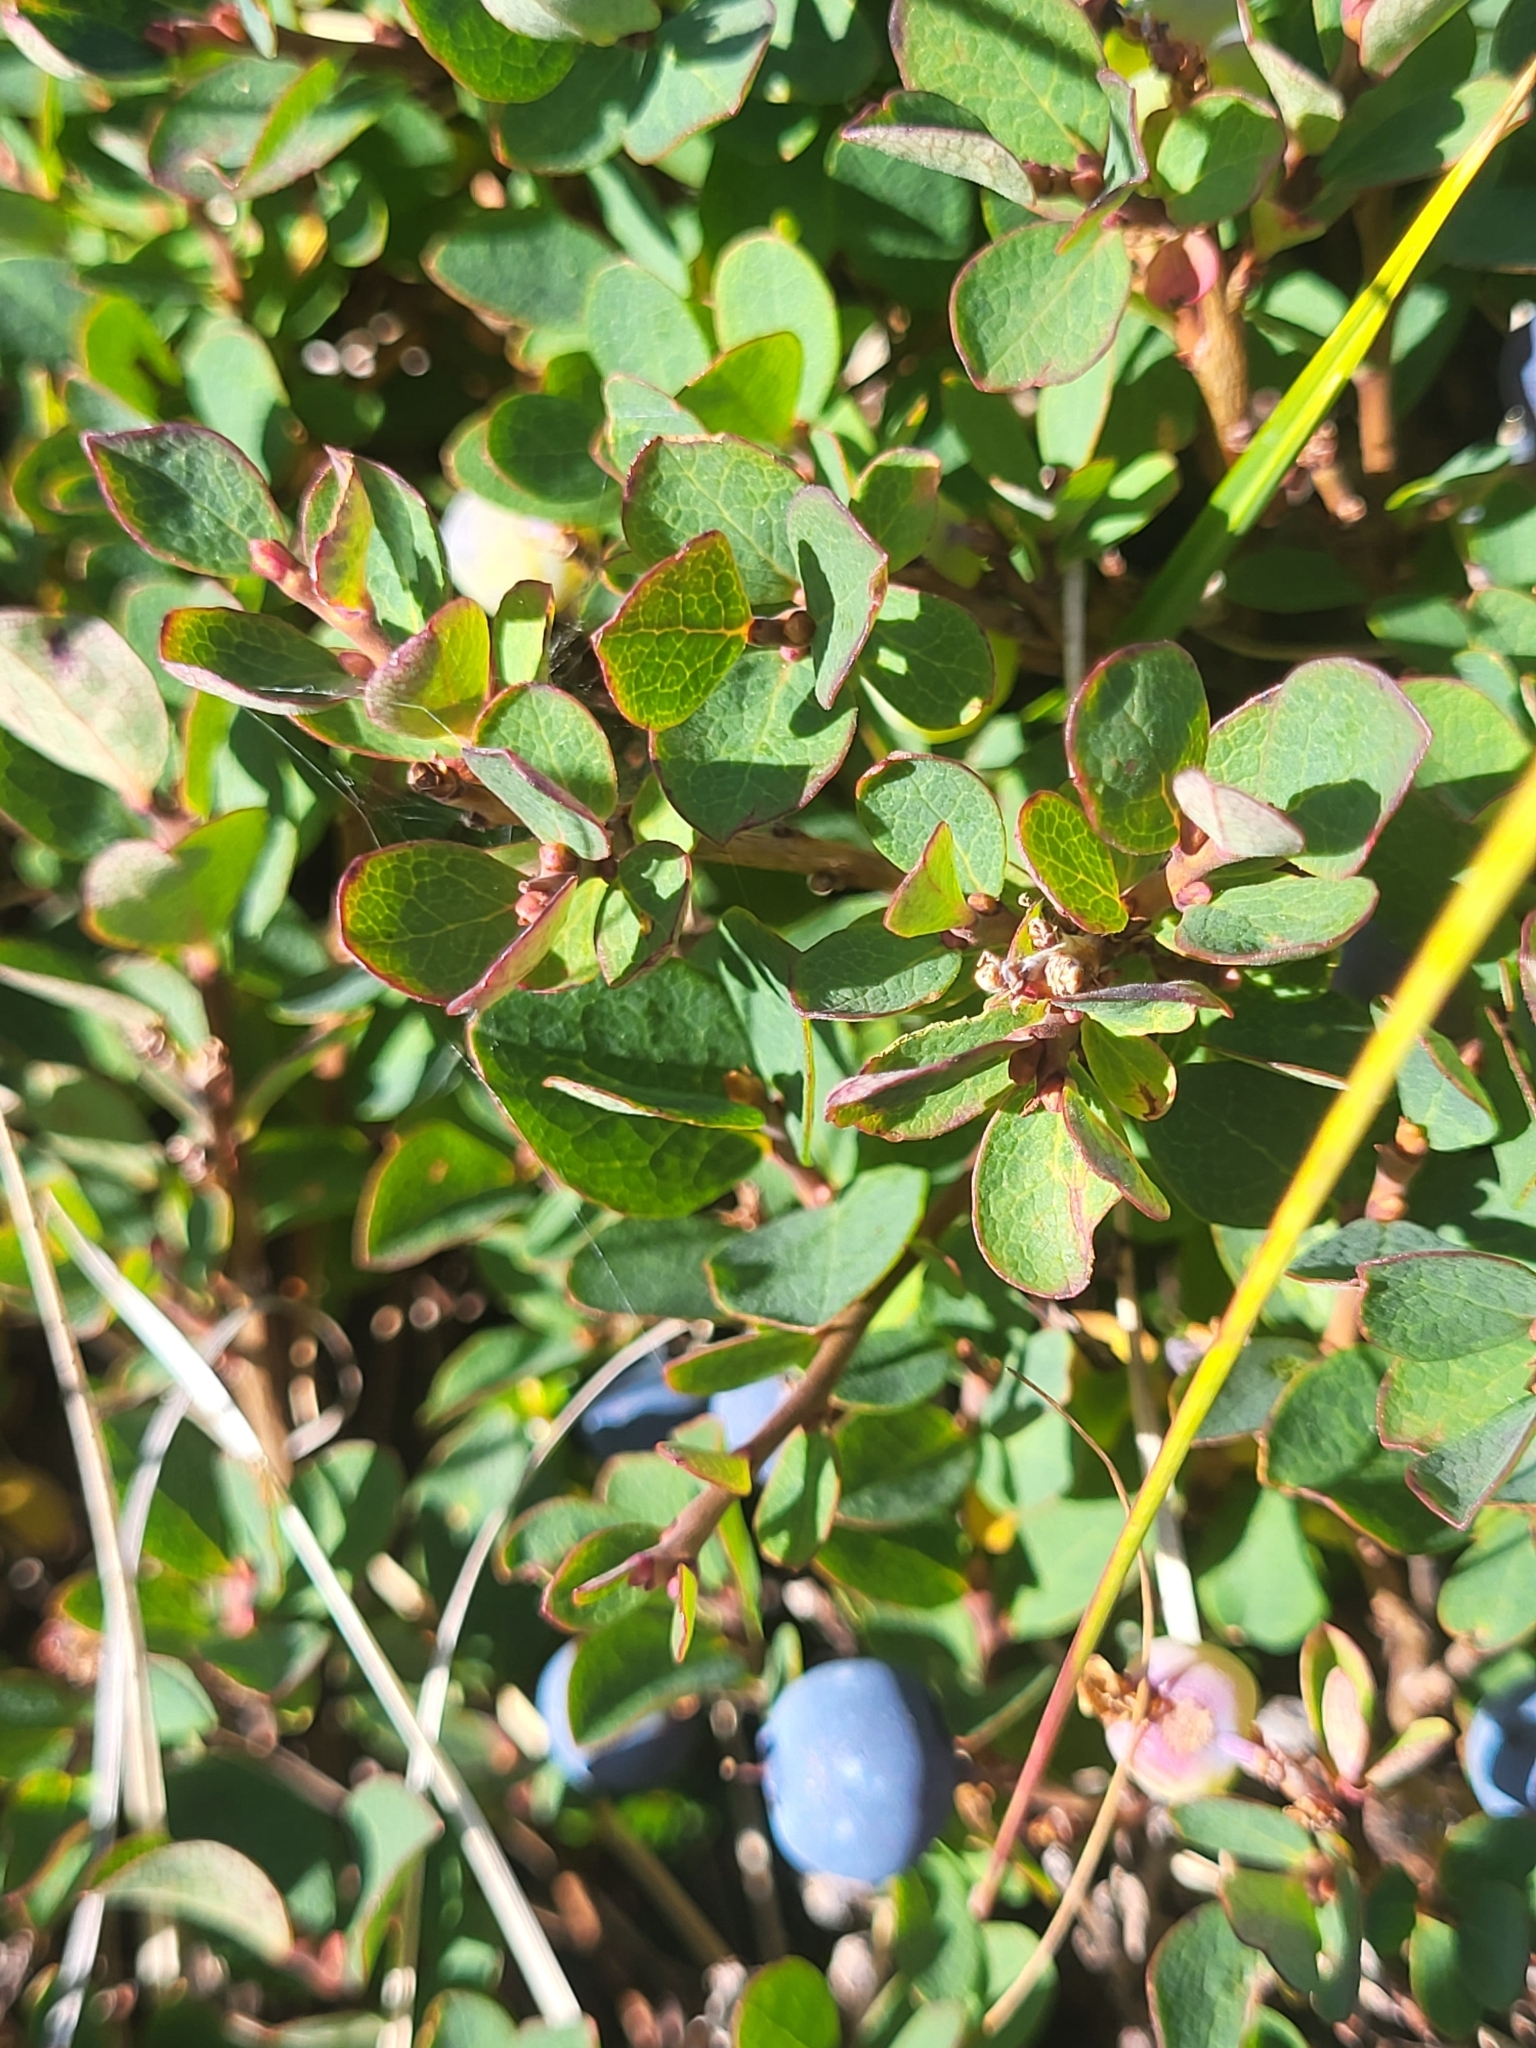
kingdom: Plantae
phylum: Tracheophyta
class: Magnoliopsida
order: Ericales
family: Ericaceae
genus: Vaccinium
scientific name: Vaccinium uliginosum
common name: Bog bilberry
